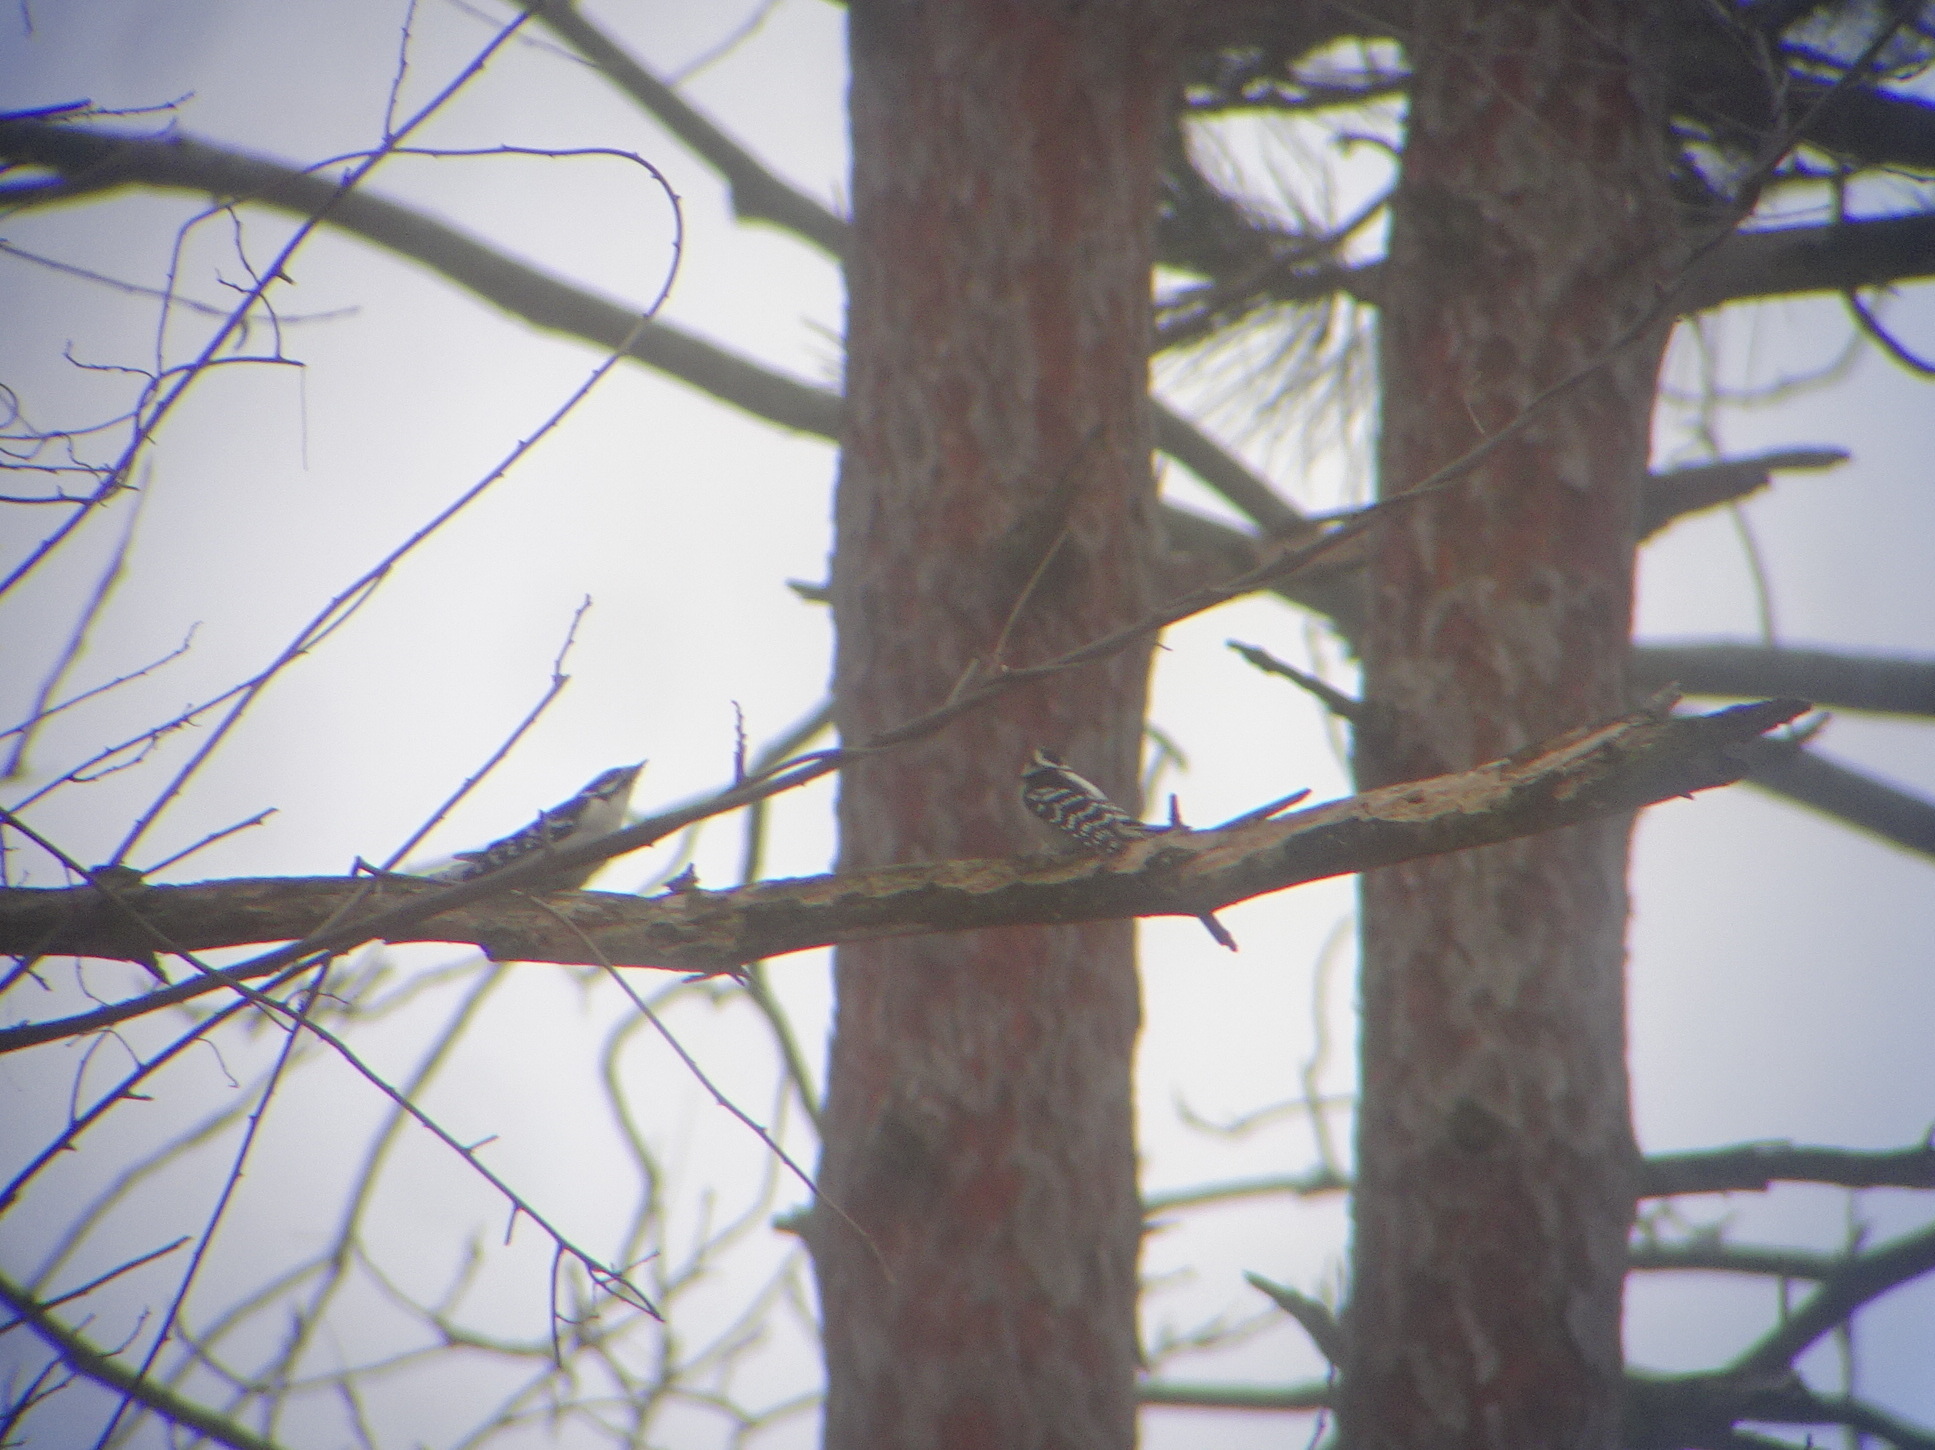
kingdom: Animalia
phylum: Chordata
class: Aves
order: Piciformes
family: Picidae
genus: Dryobates
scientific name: Dryobates pubescens
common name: Downy woodpecker
